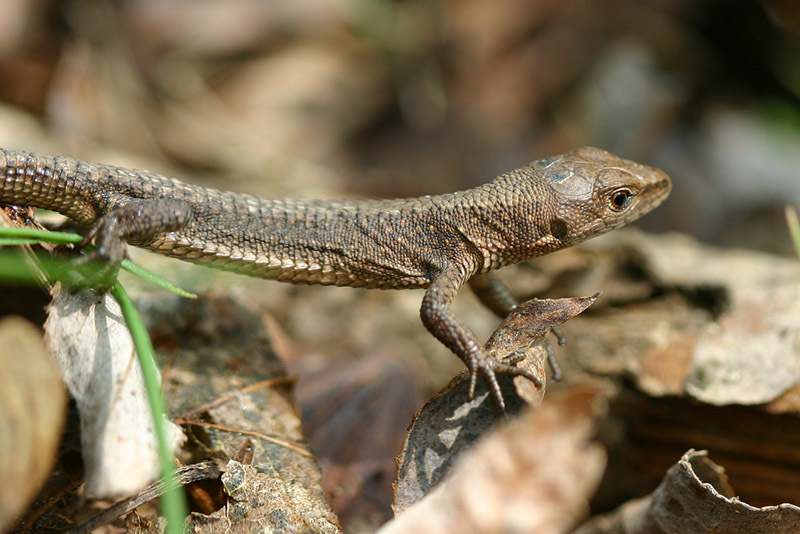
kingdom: Animalia
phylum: Chordata
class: Squamata
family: Lacertidae
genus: Takydromus
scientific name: Takydromus amurensis
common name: Amur grass lizard
